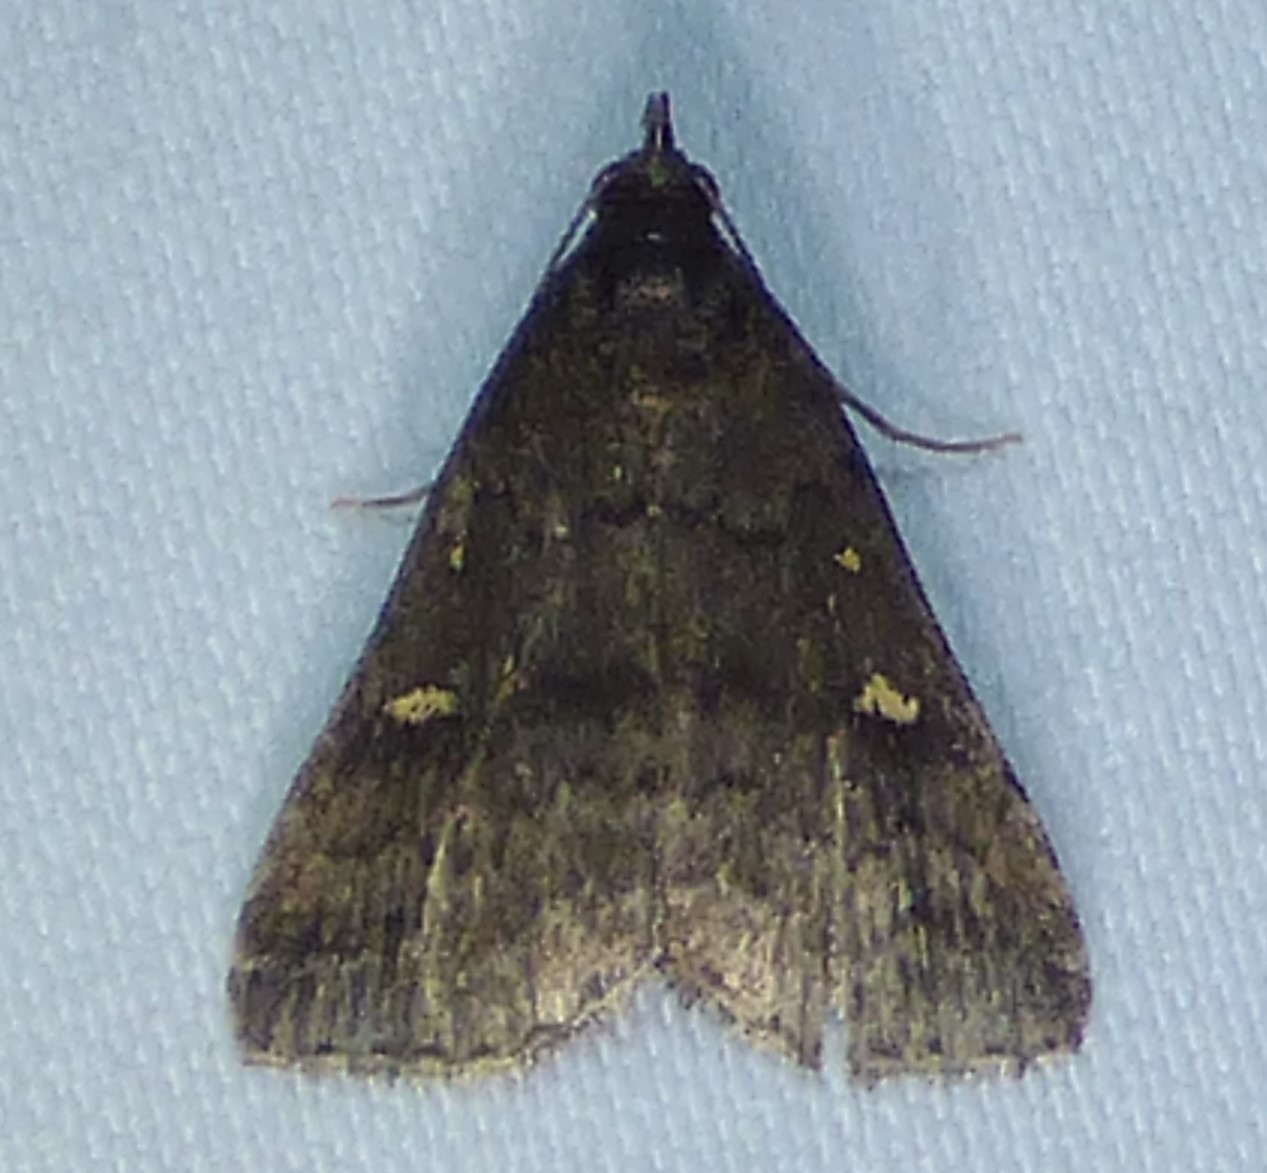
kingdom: Animalia
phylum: Arthropoda
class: Insecta
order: Lepidoptera
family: Erebidae
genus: Tetanolita
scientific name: Tetanolita mynesalis
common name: Smoky tetanolita moth
